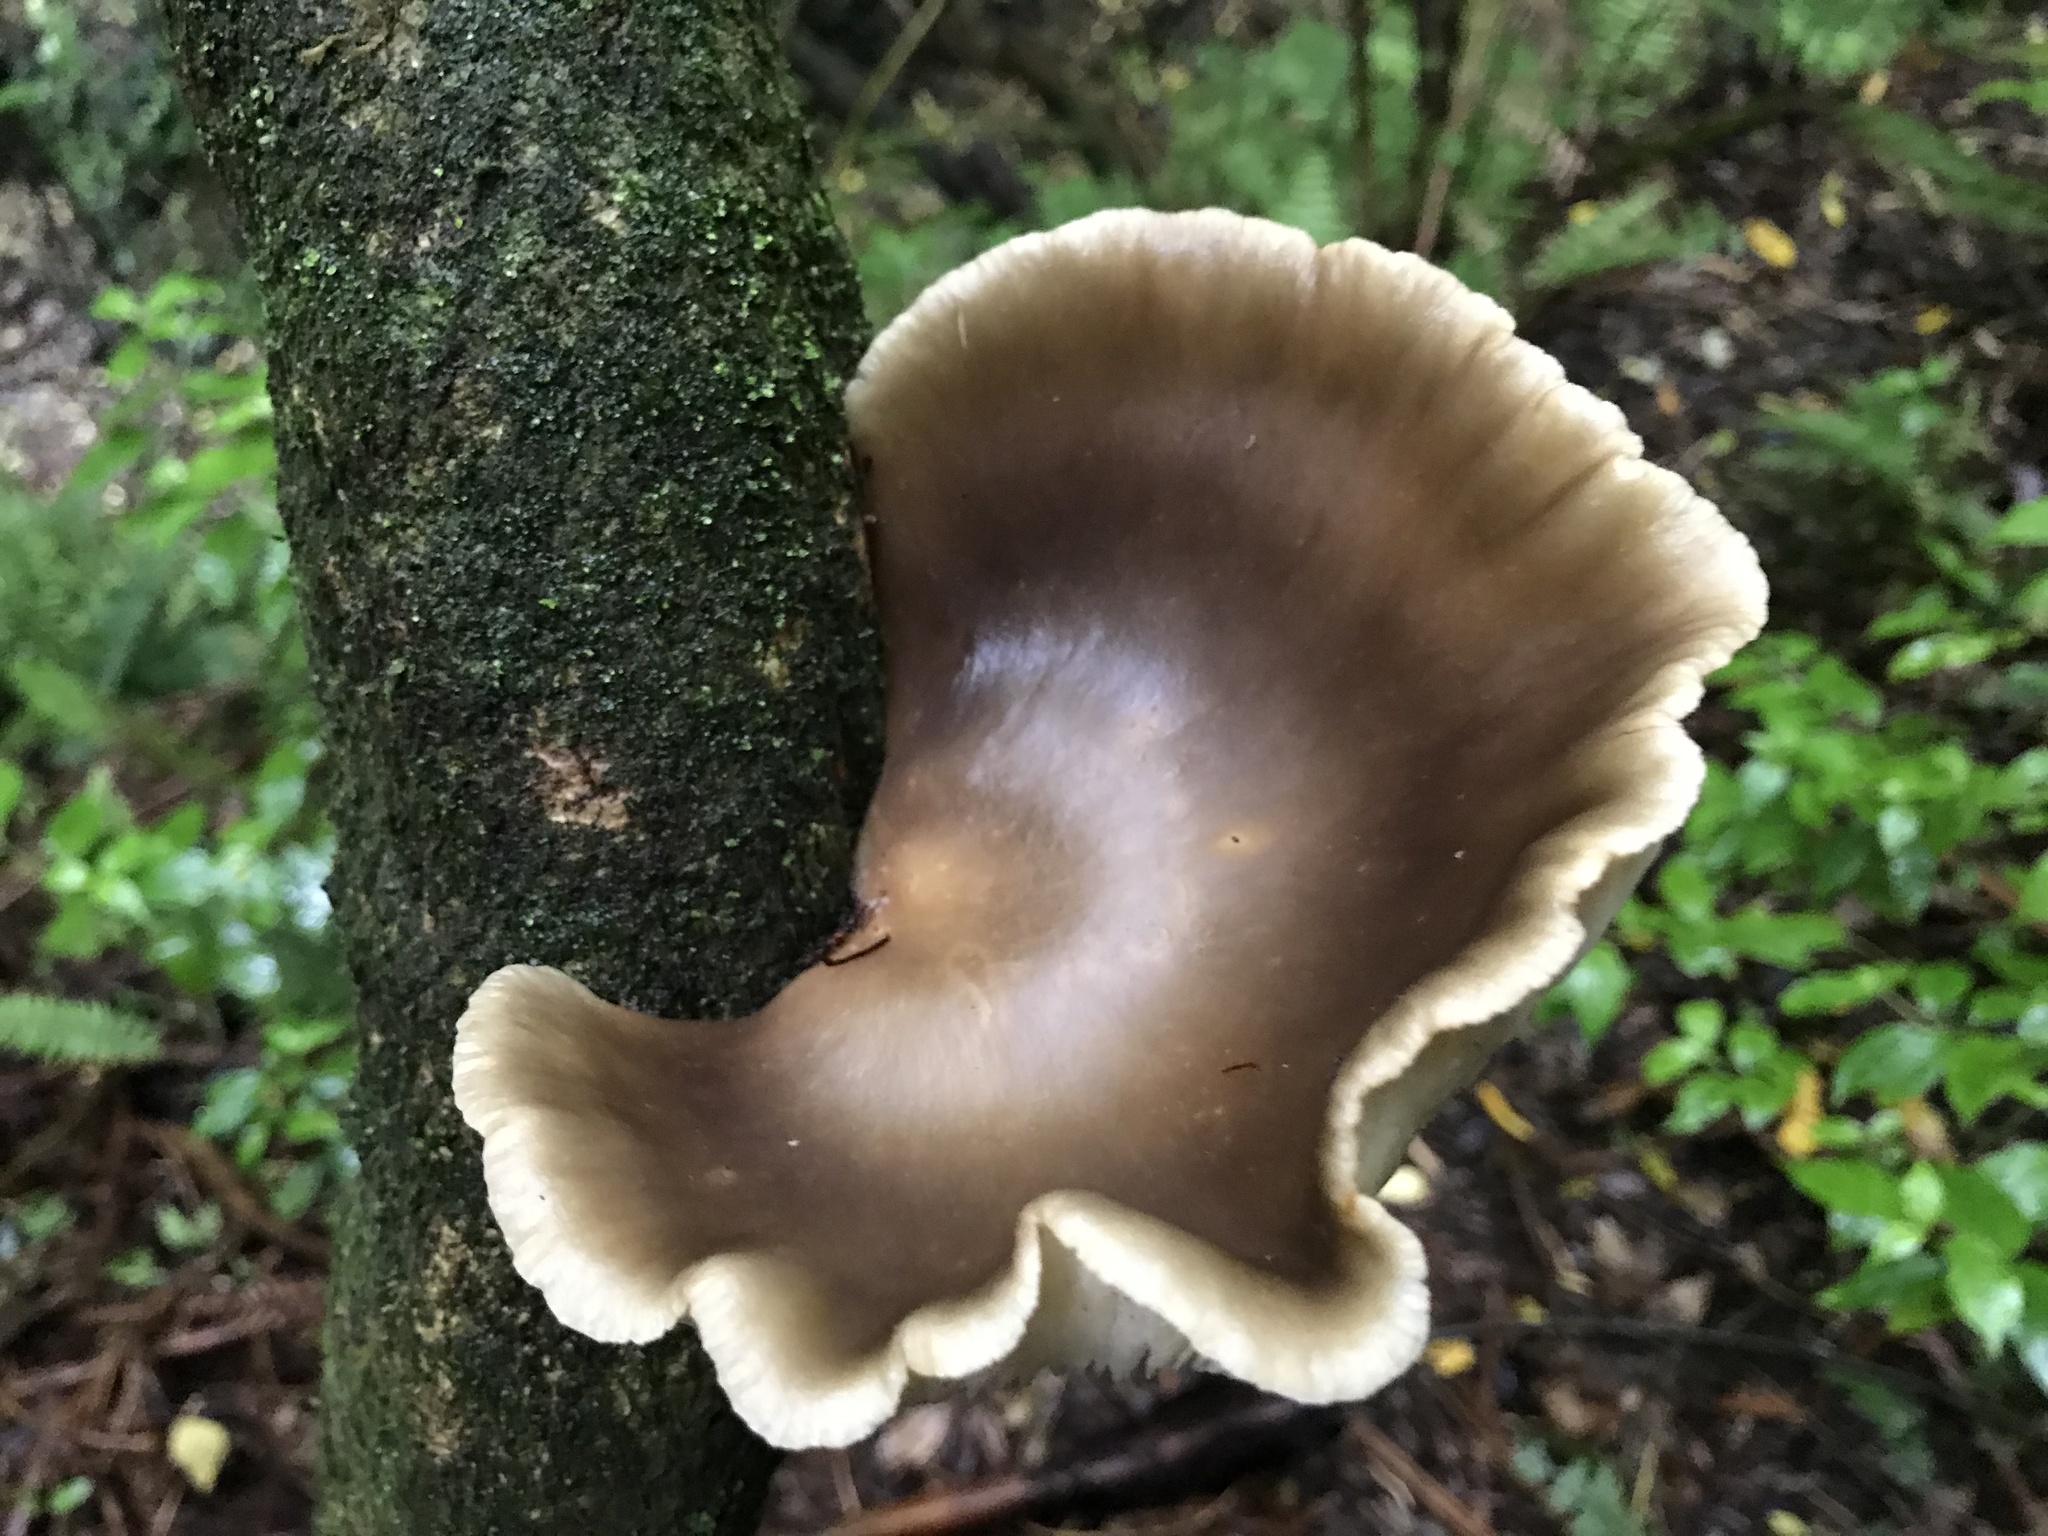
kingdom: Fungi
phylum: Basidiomycota
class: Agaricomycetes
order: Agaricales
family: Pleurotaceae
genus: Pleurotus
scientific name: Pleurotus australis
